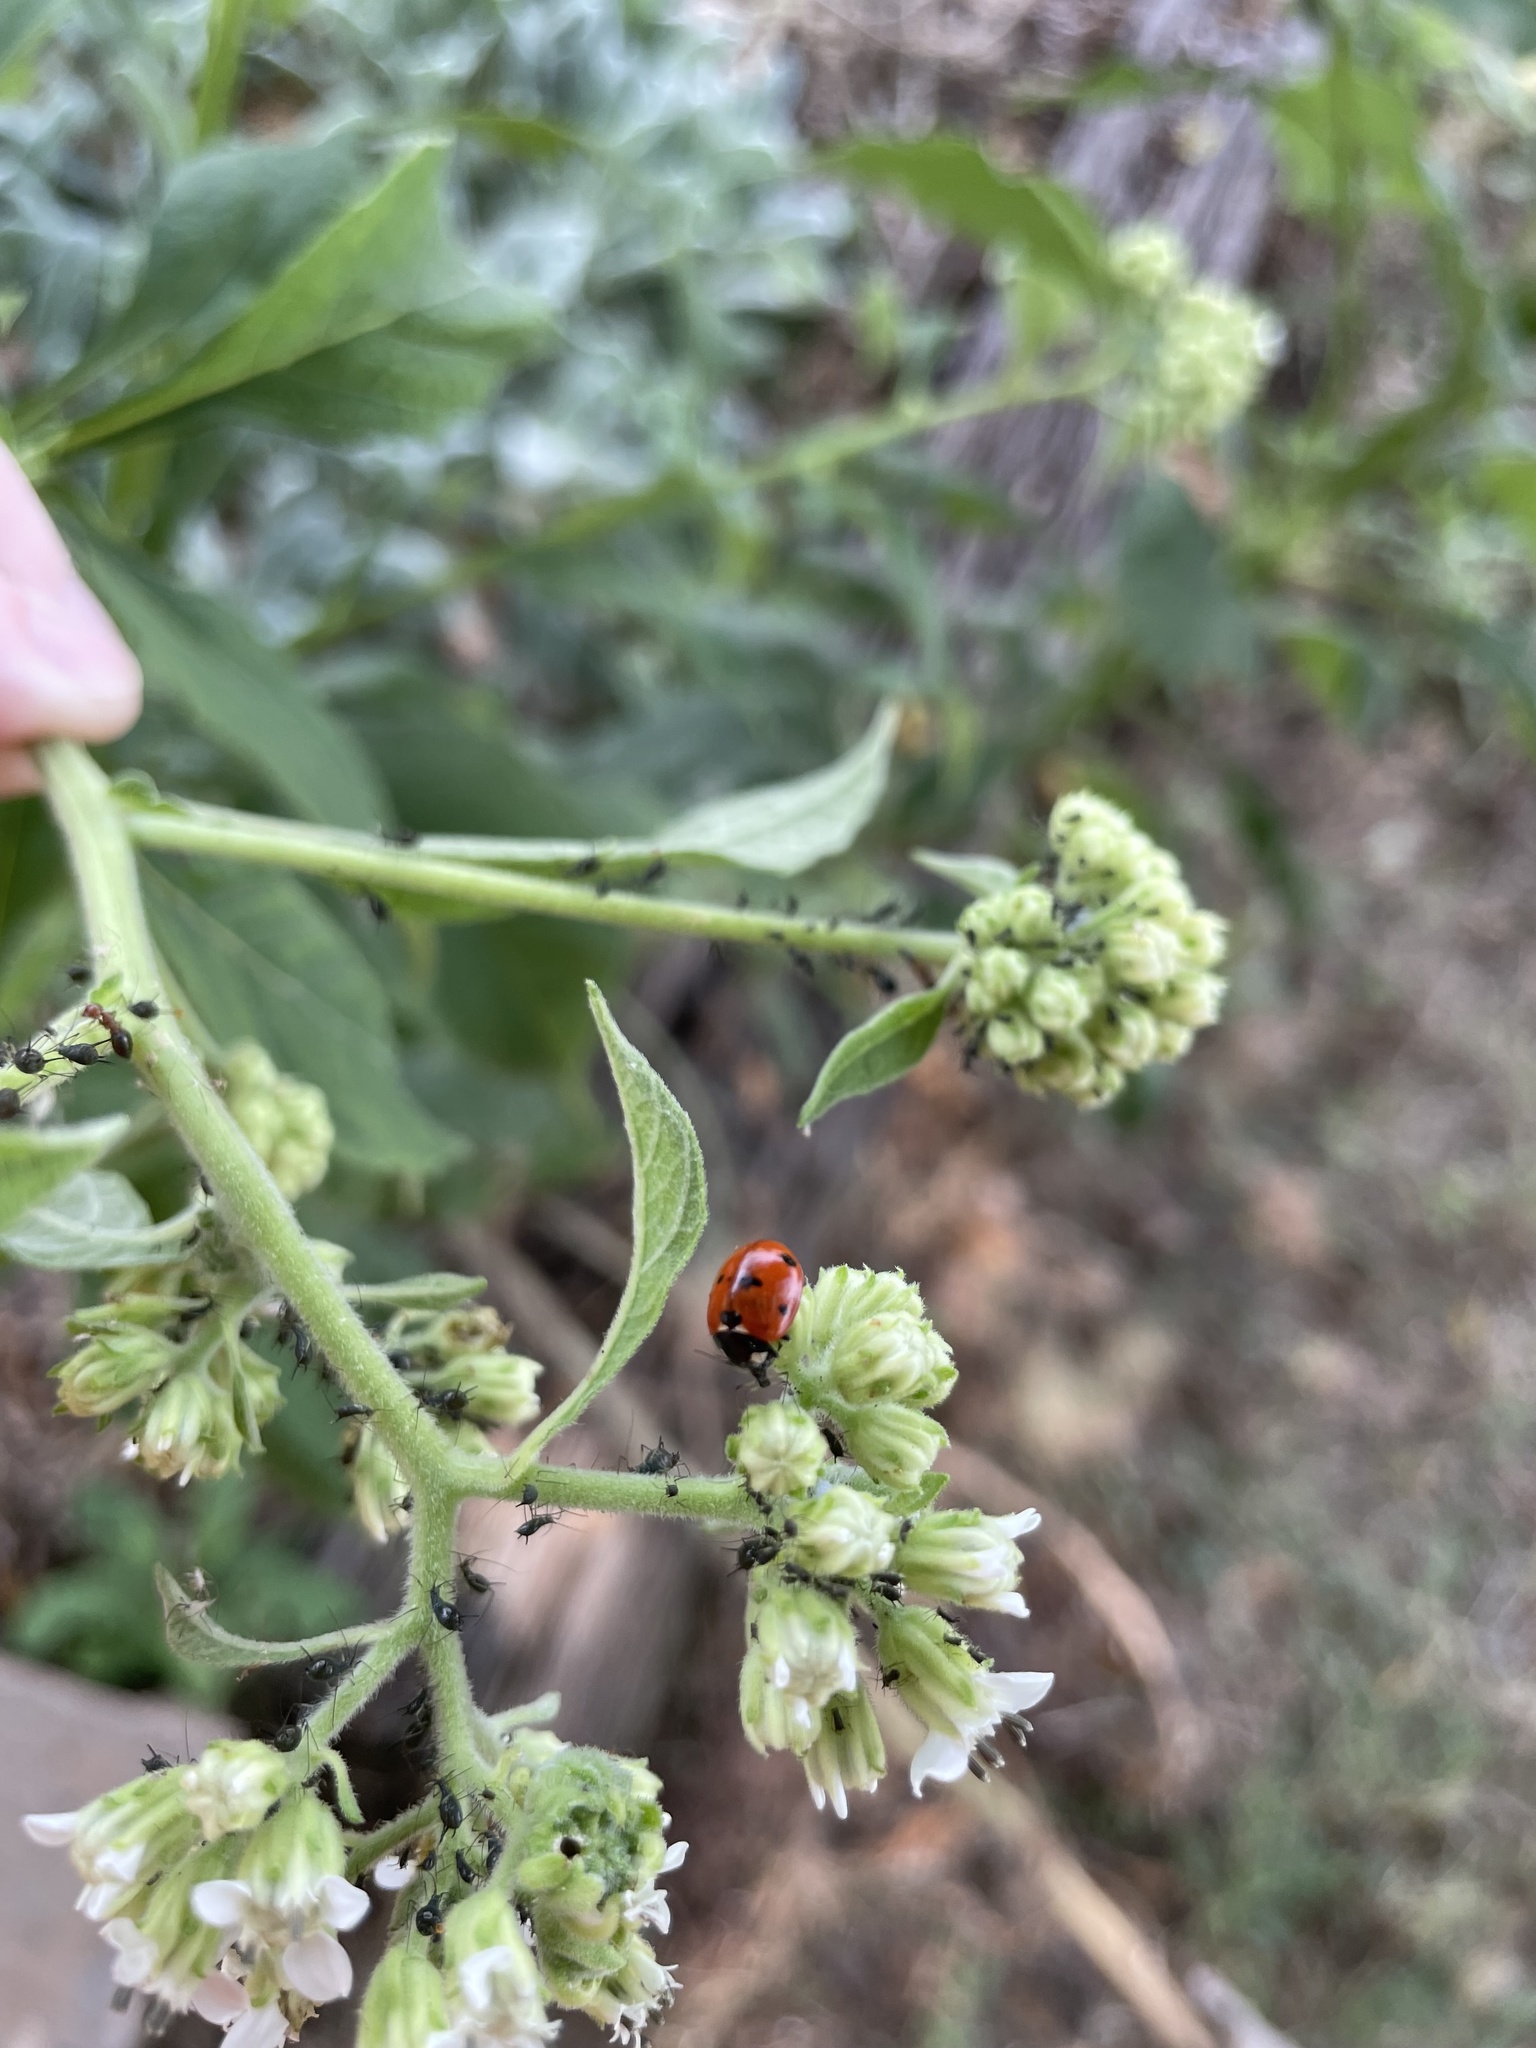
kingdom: Animalia
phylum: Arthropoda
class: Insecta
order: Coleoptera
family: Coccinellidae
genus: Coccinella
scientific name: Coccinella septempunctata
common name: Sevenspotted lady beetle
